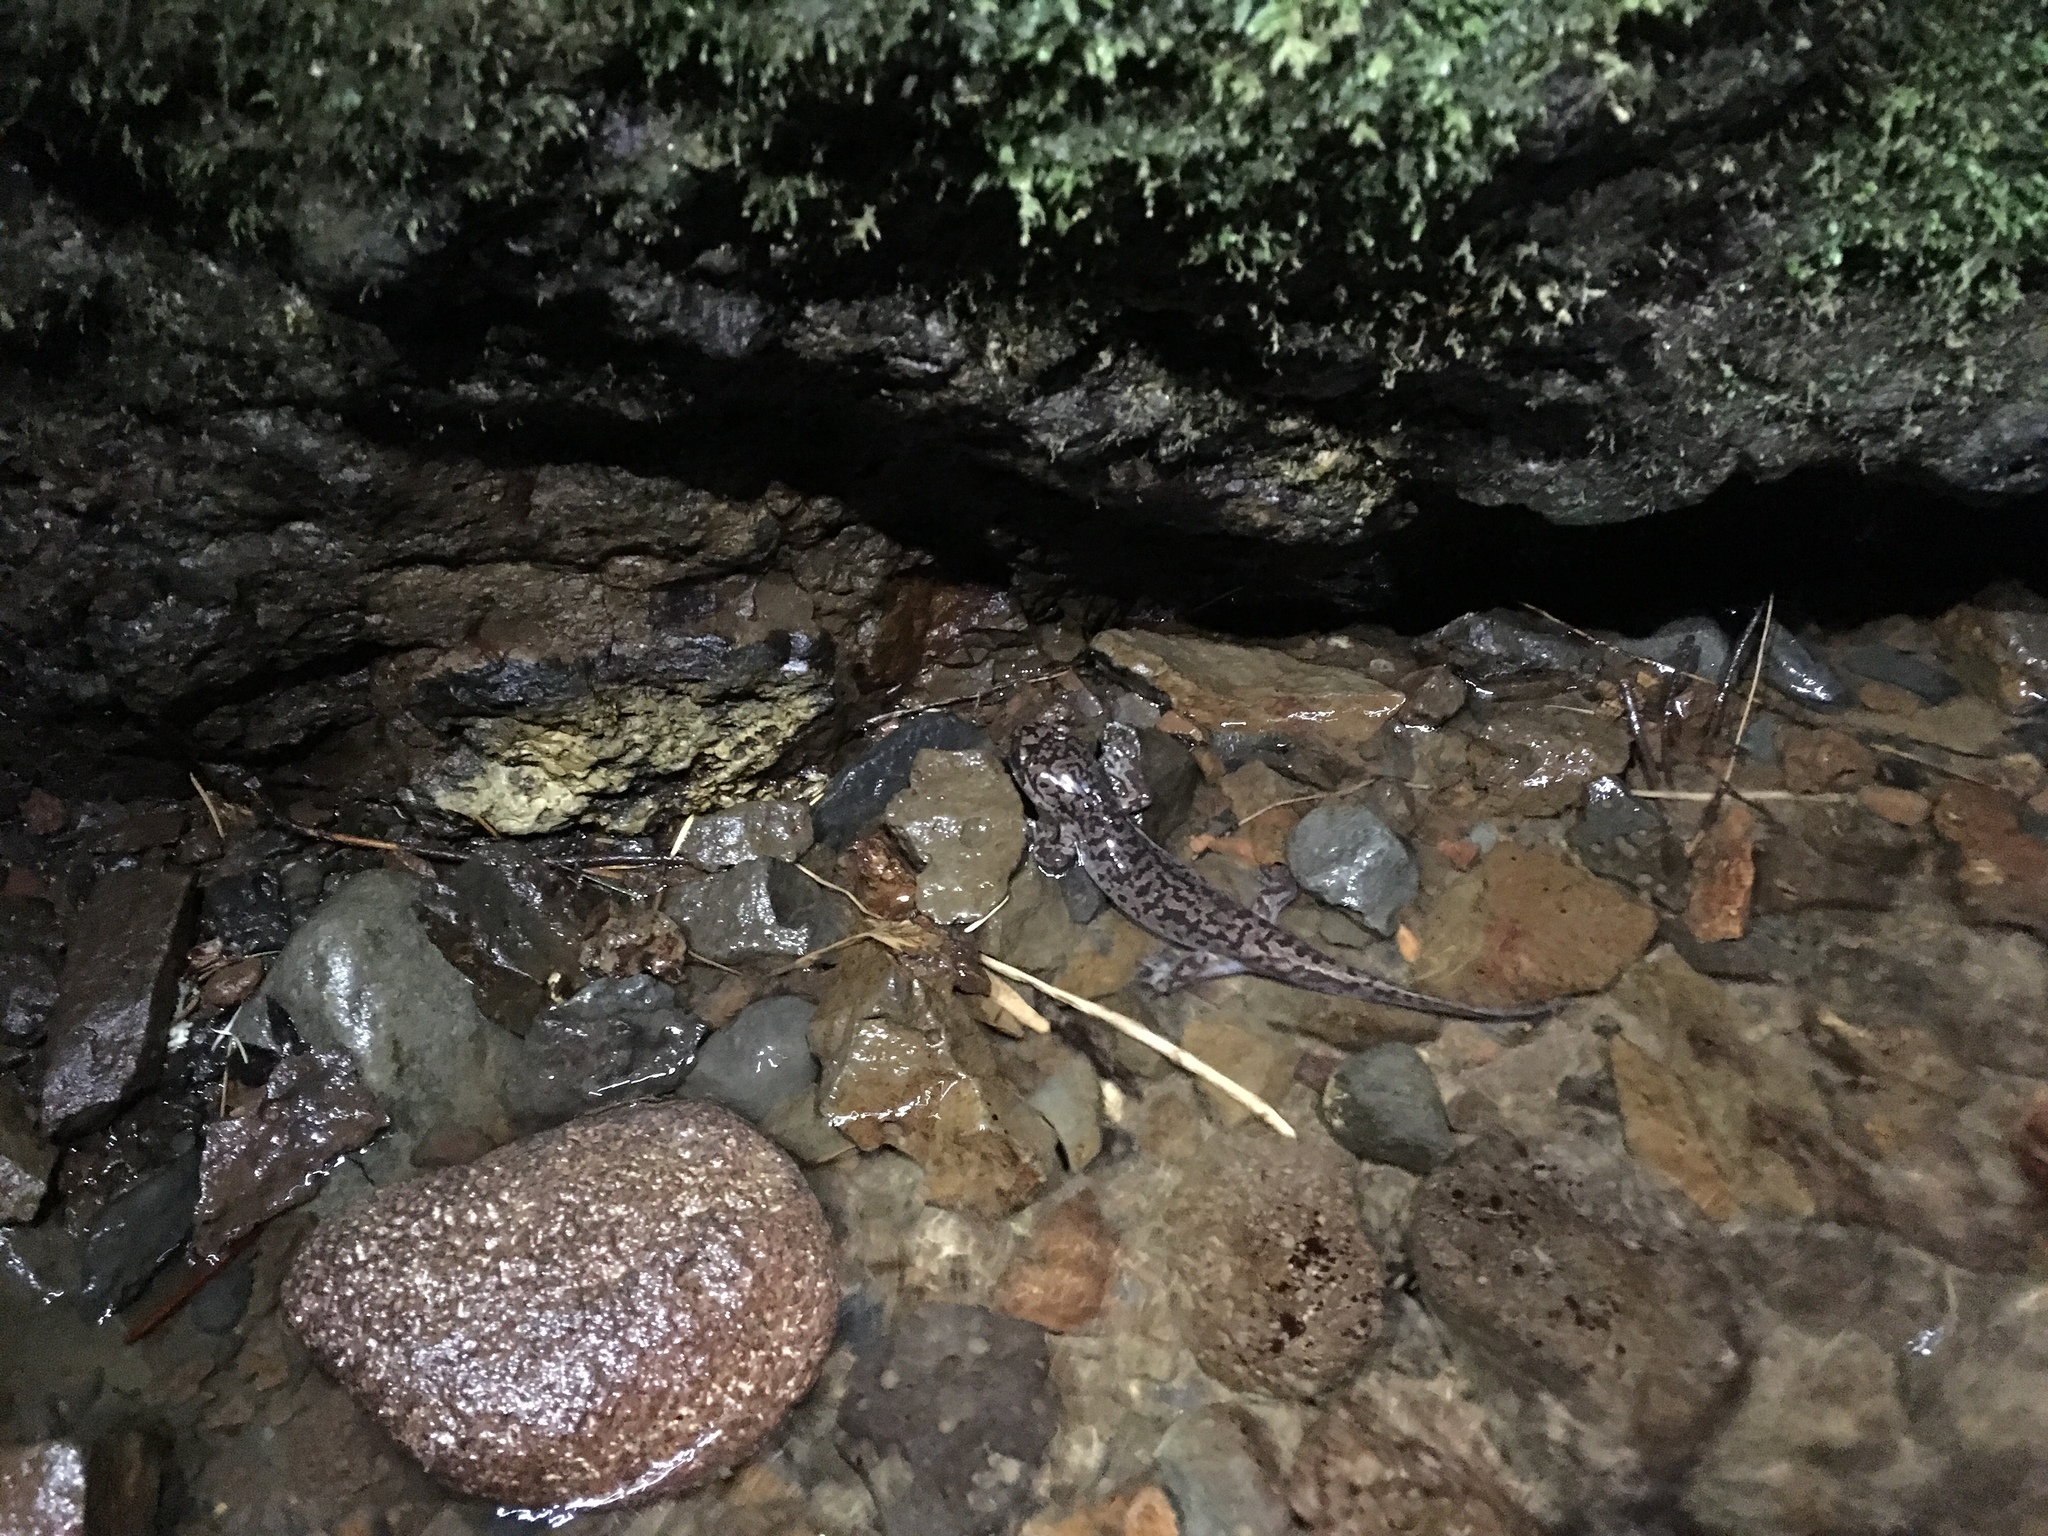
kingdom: Animalia
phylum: Chordata
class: Amphibia
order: Caudata
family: Ambystomatidae
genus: Dicamptodon
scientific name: Dicamptodon tenebrosus
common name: Coastal giant salamander
